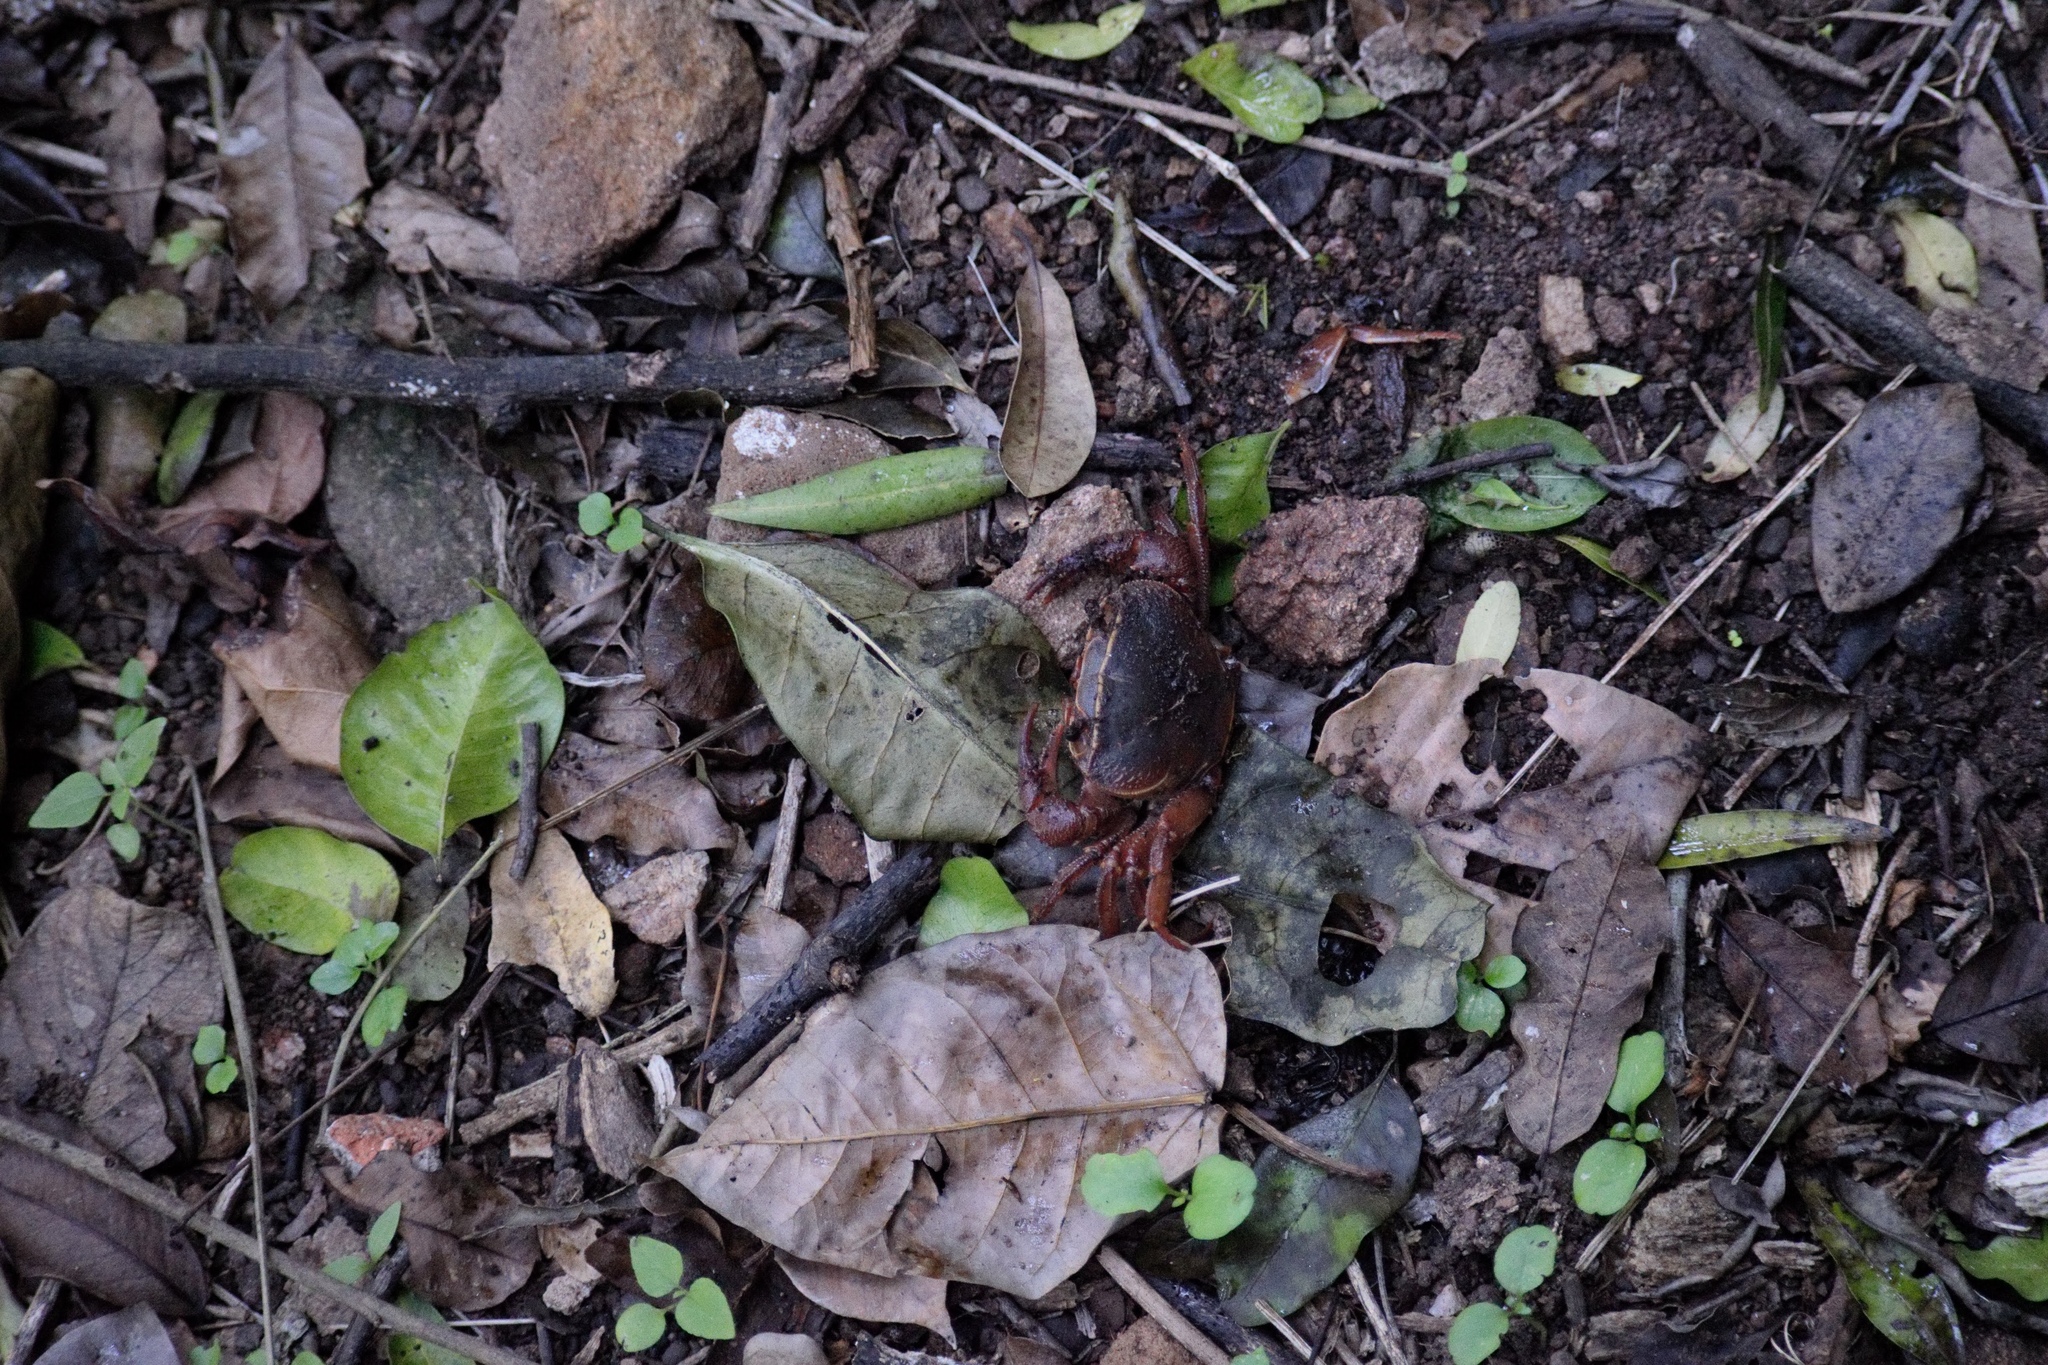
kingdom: Animalia
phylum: Arthropoda
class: Malacostraca
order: Decapoda
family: Potamonautidae
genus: Potamonautes
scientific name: Potamonautes sidneyi
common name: Natal river crab
